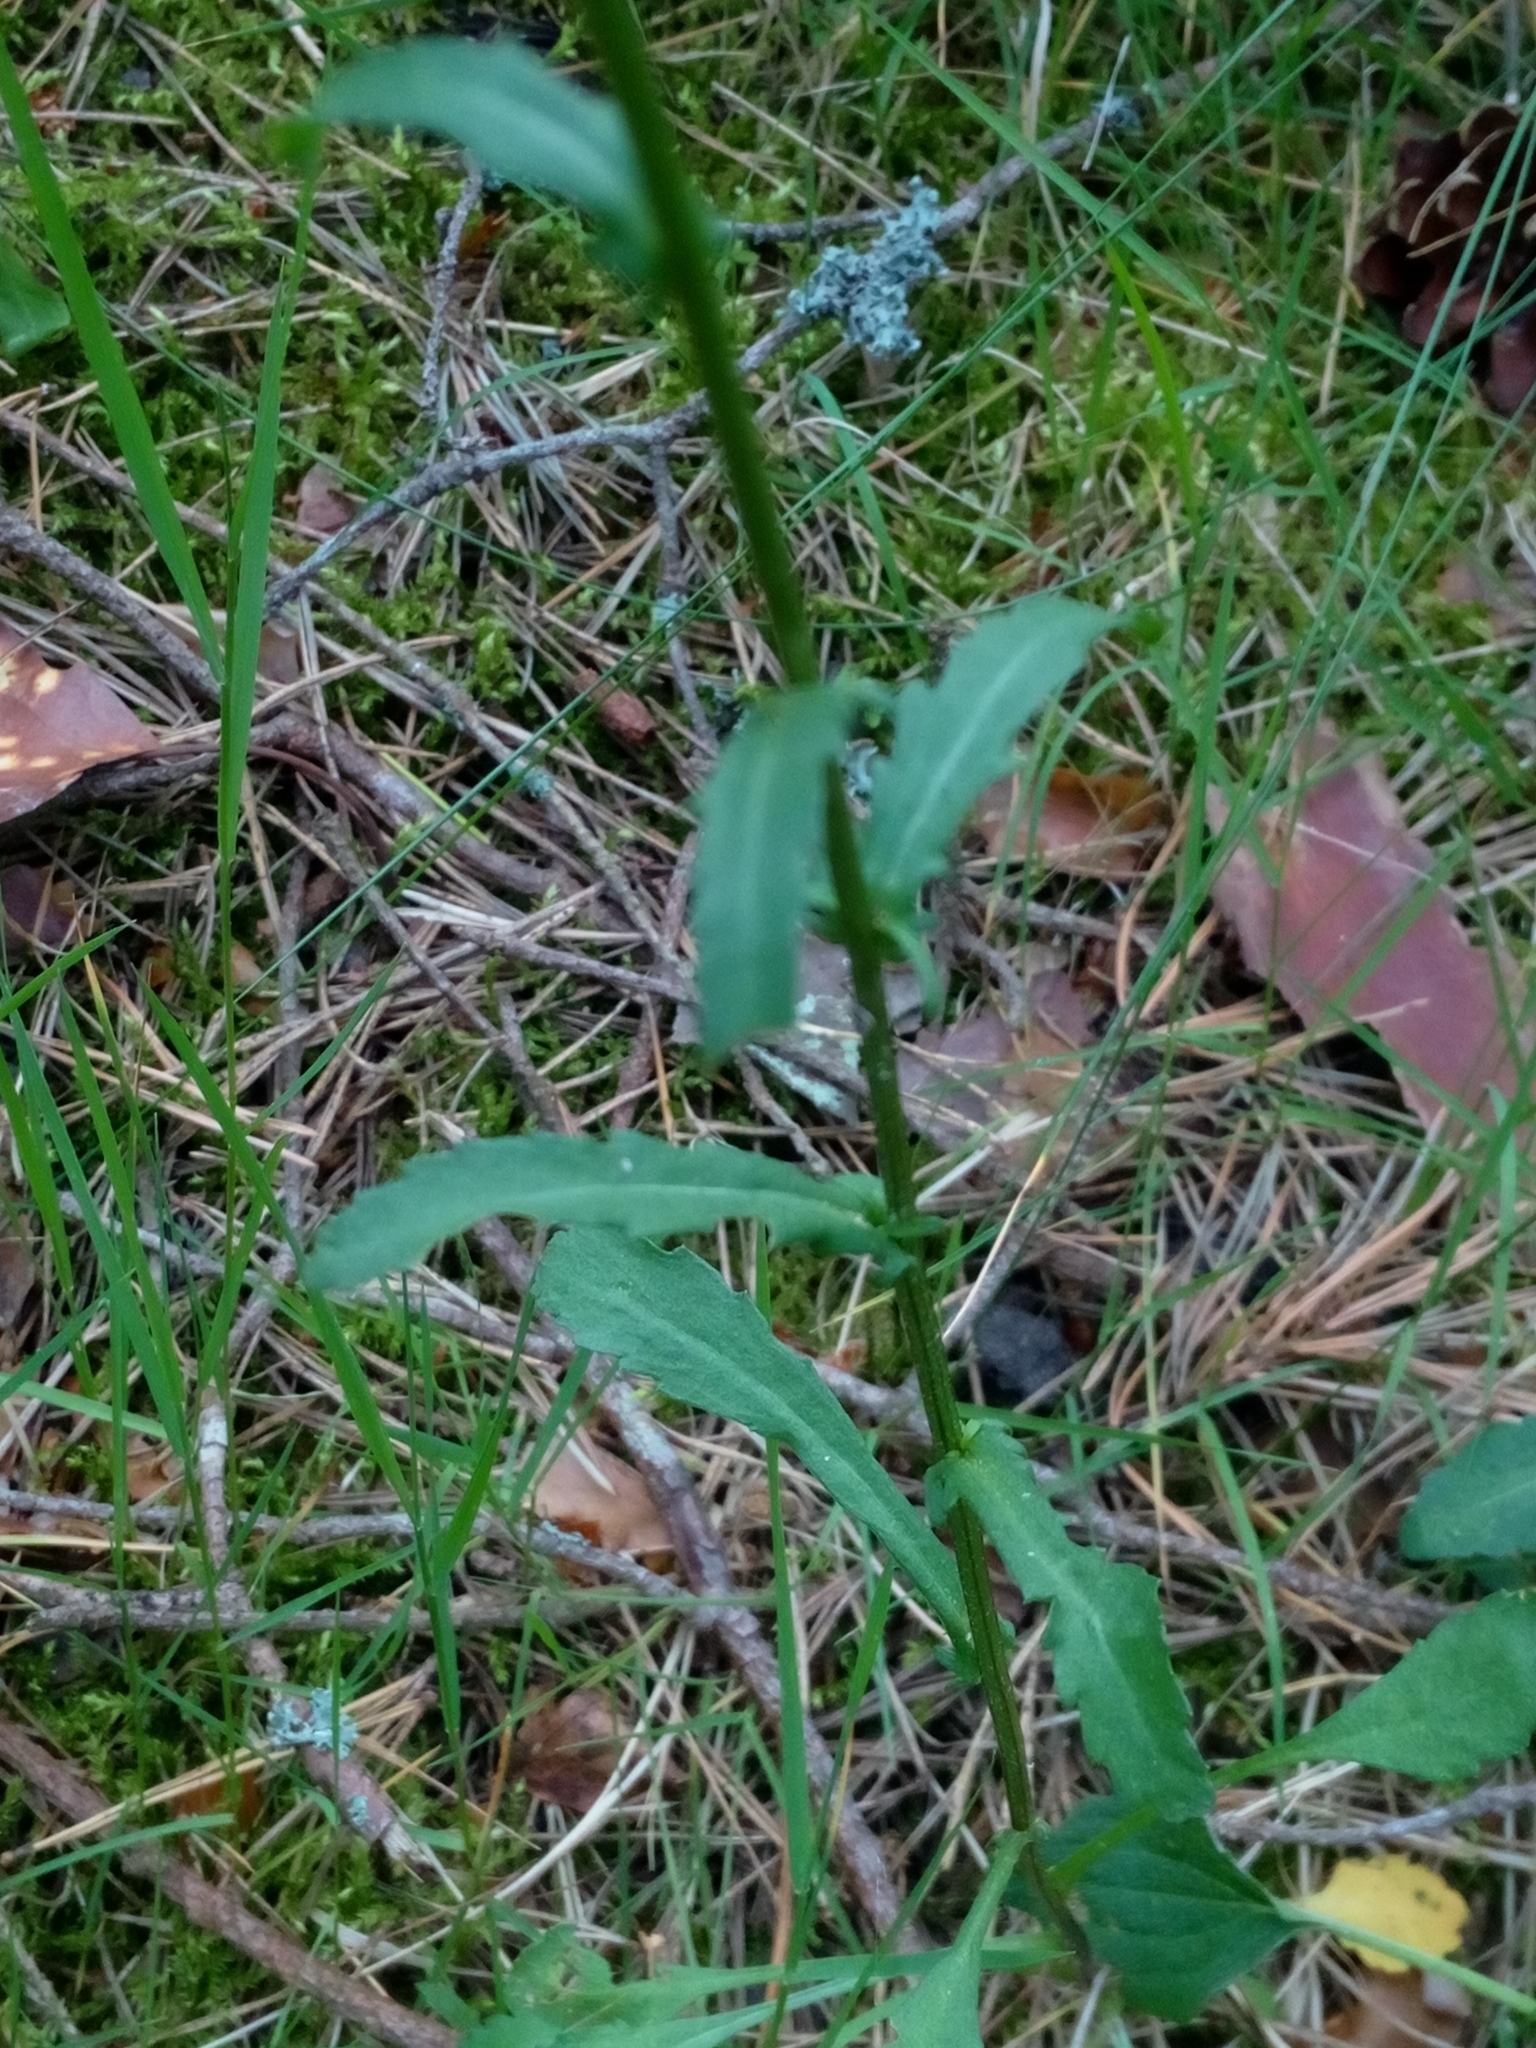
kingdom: Plantae
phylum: Tracheophyta
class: Magnoliopsida
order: Asterales
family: Asteraceae
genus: Leucanthemum
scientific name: Leucanthemum vulgare
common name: Oxeye daisy
